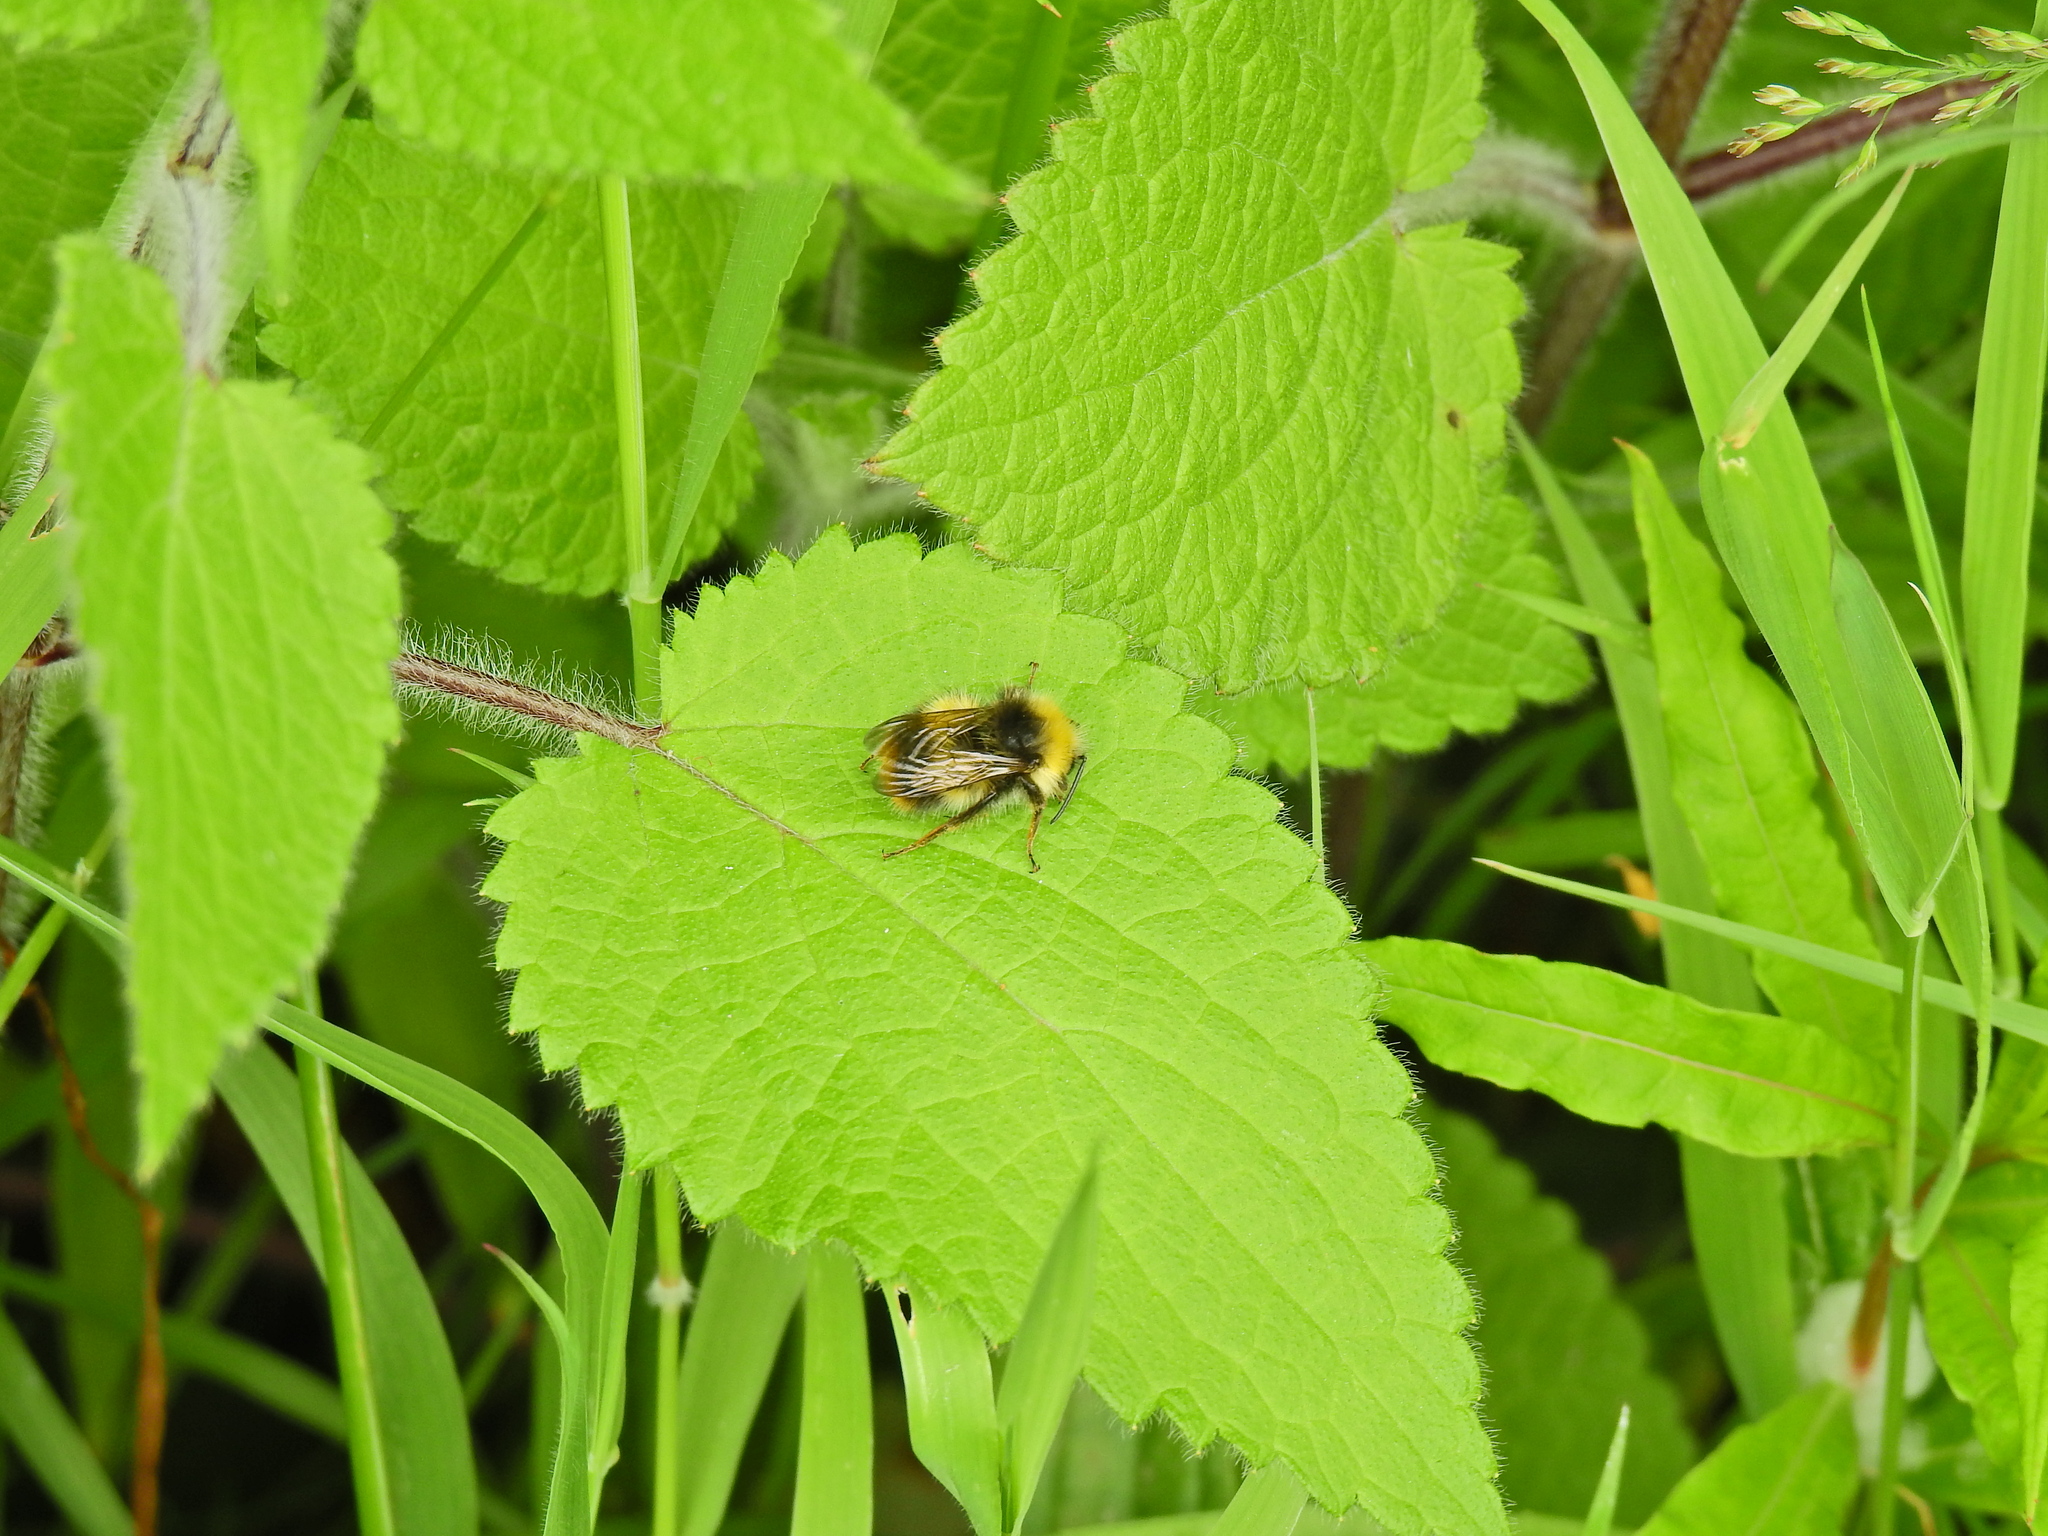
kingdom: Animalia
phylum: Arthropoda
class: Insecta
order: Hymenoptera
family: Apidae
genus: Bombus
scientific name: Bombus pratorum
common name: Early humble-bee
